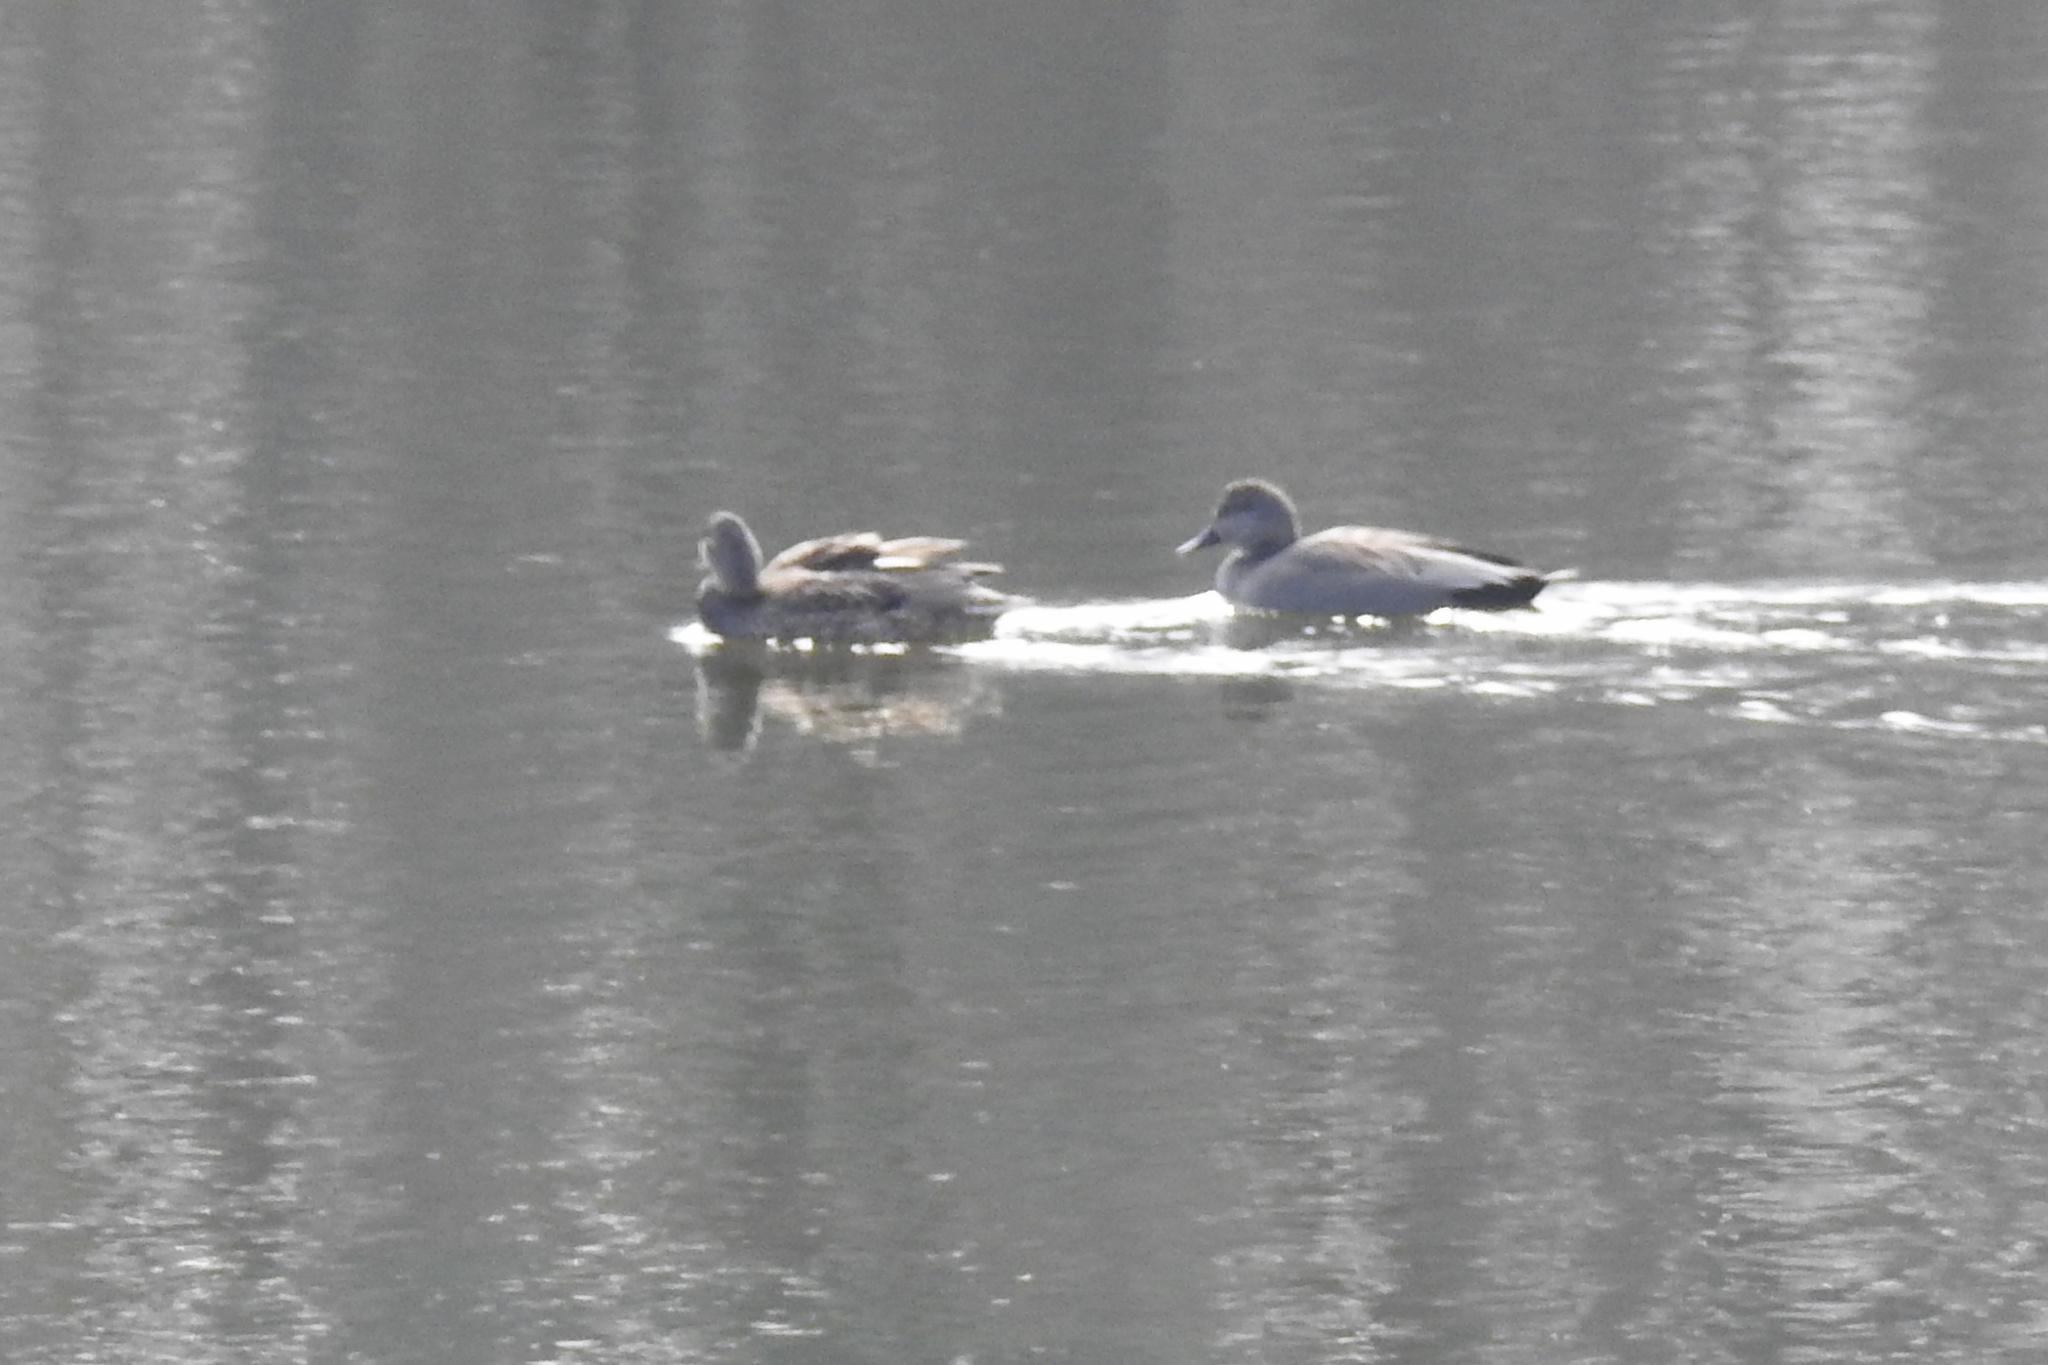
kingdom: Animalia
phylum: Chordata
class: Aves
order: Anseriformes
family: Anatidae
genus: Mareca
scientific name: Mareca strepera
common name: Gadwall
